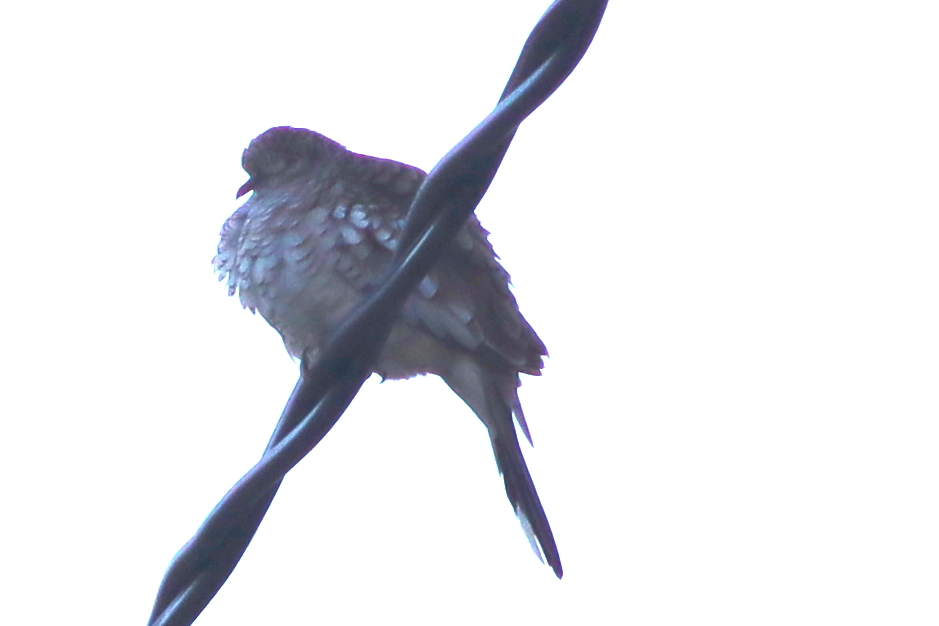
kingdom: Animalia
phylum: Chordata
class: Aves
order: Columbiformes
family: Columbidae
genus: Columbina
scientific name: Columbina squammata
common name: Scaled dove
